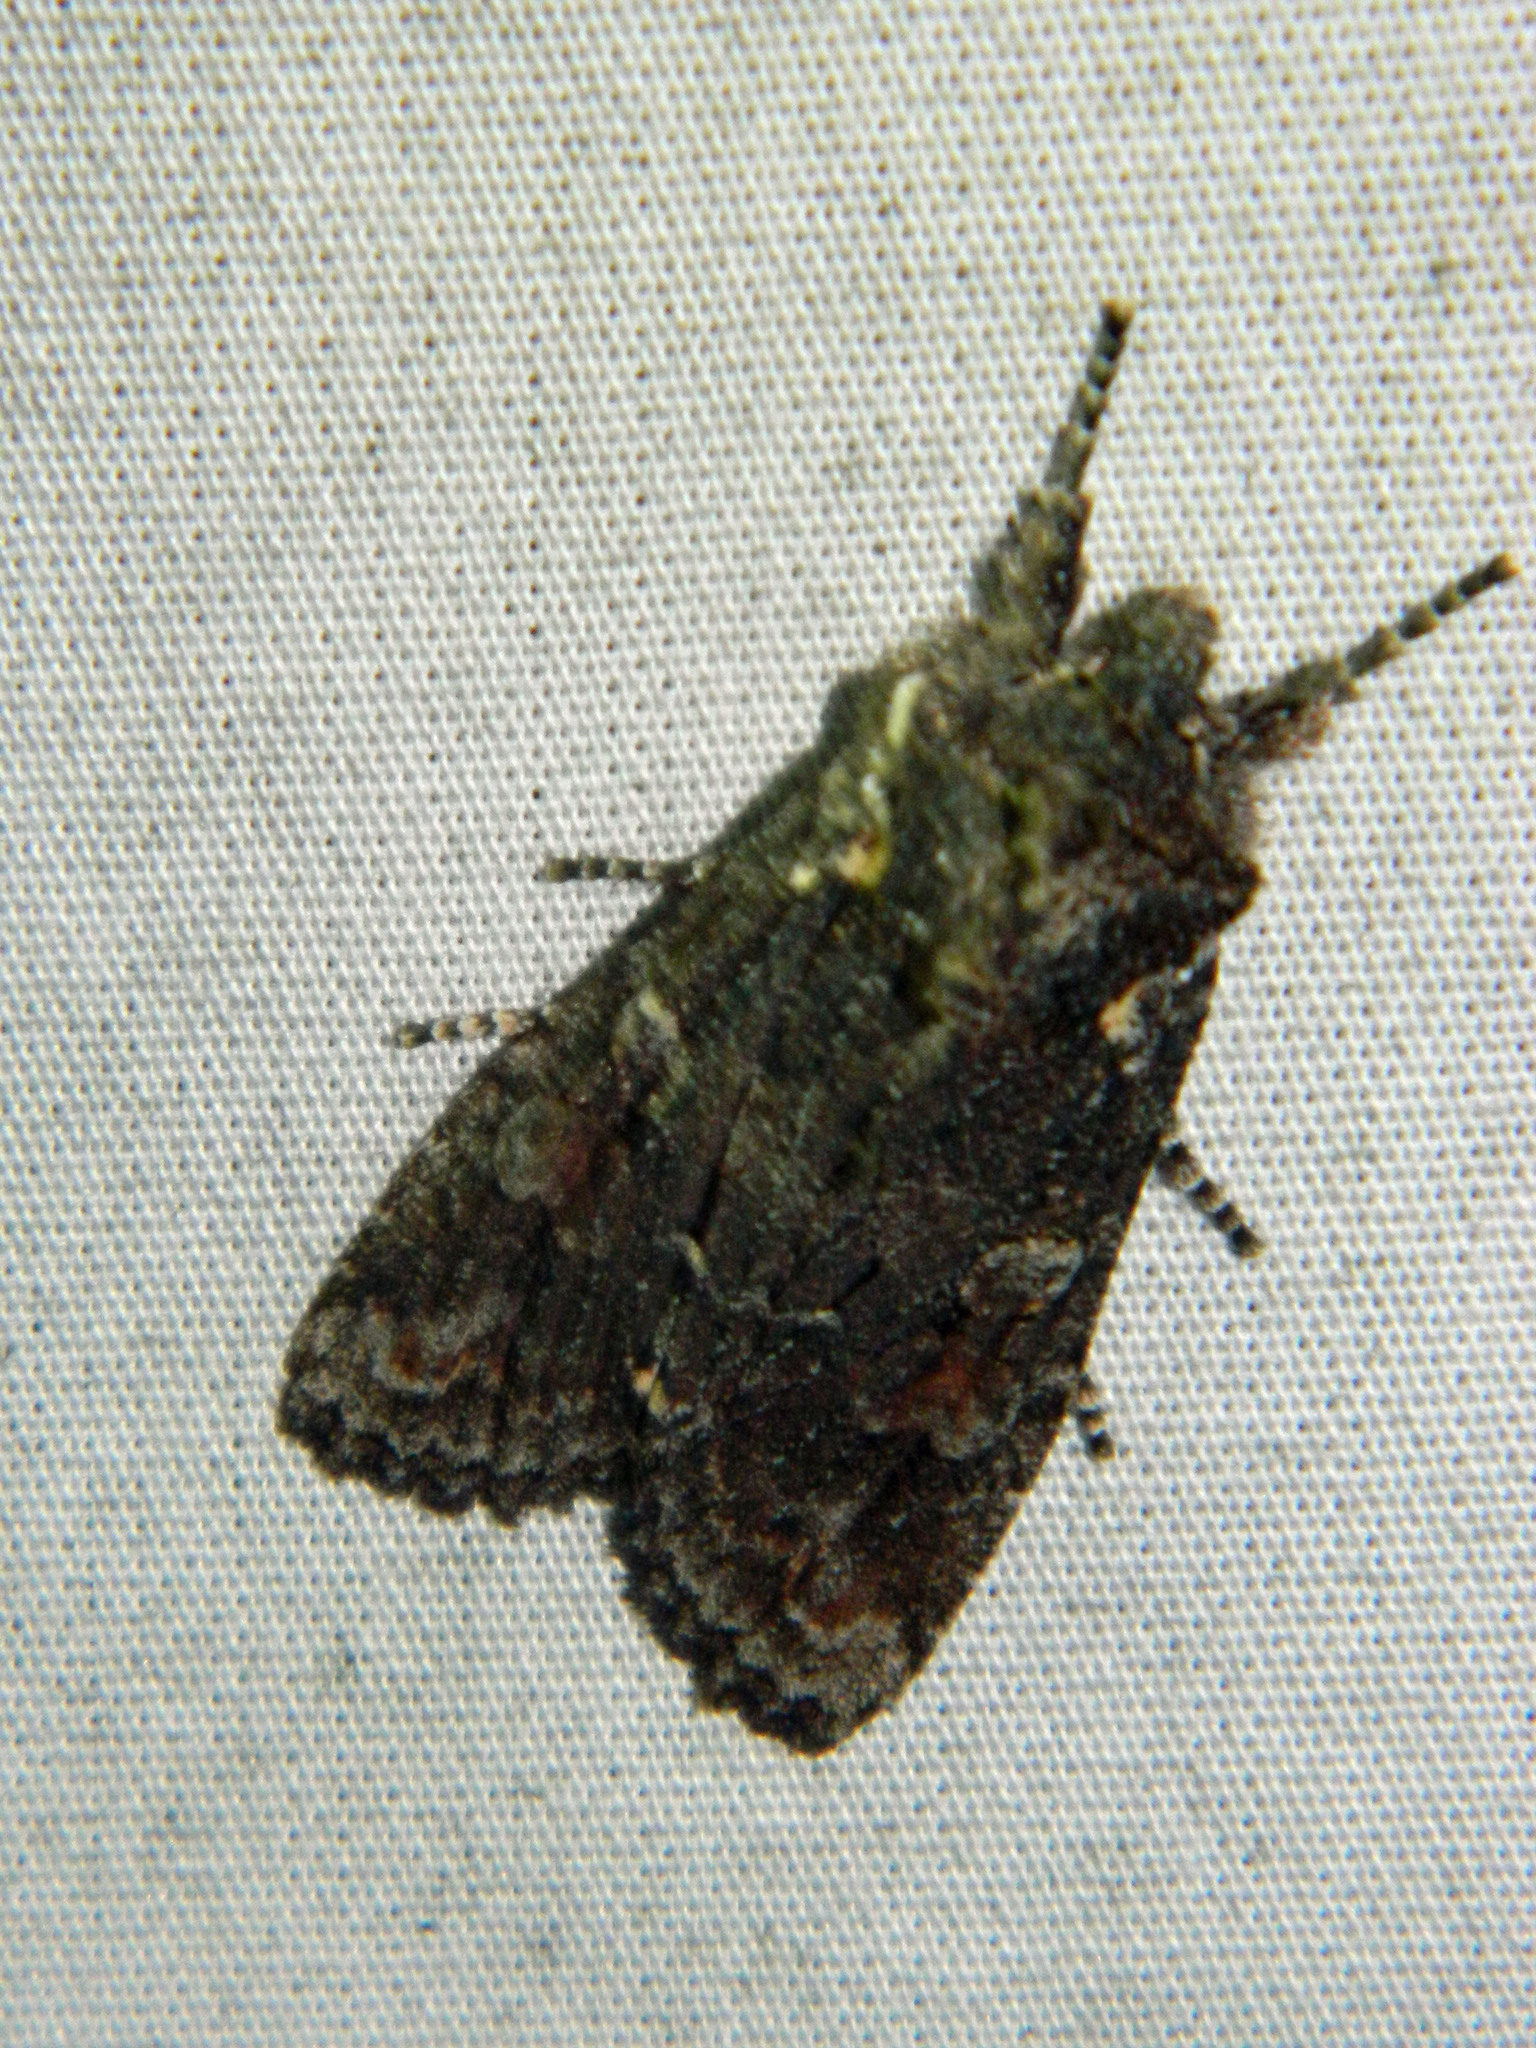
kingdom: Animalia
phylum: Arthropoda
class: Insecta
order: Lepidoptera
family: Noctuidae
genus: Lithophane
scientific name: Lithophane pexata
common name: Plush-naped pinion moth
